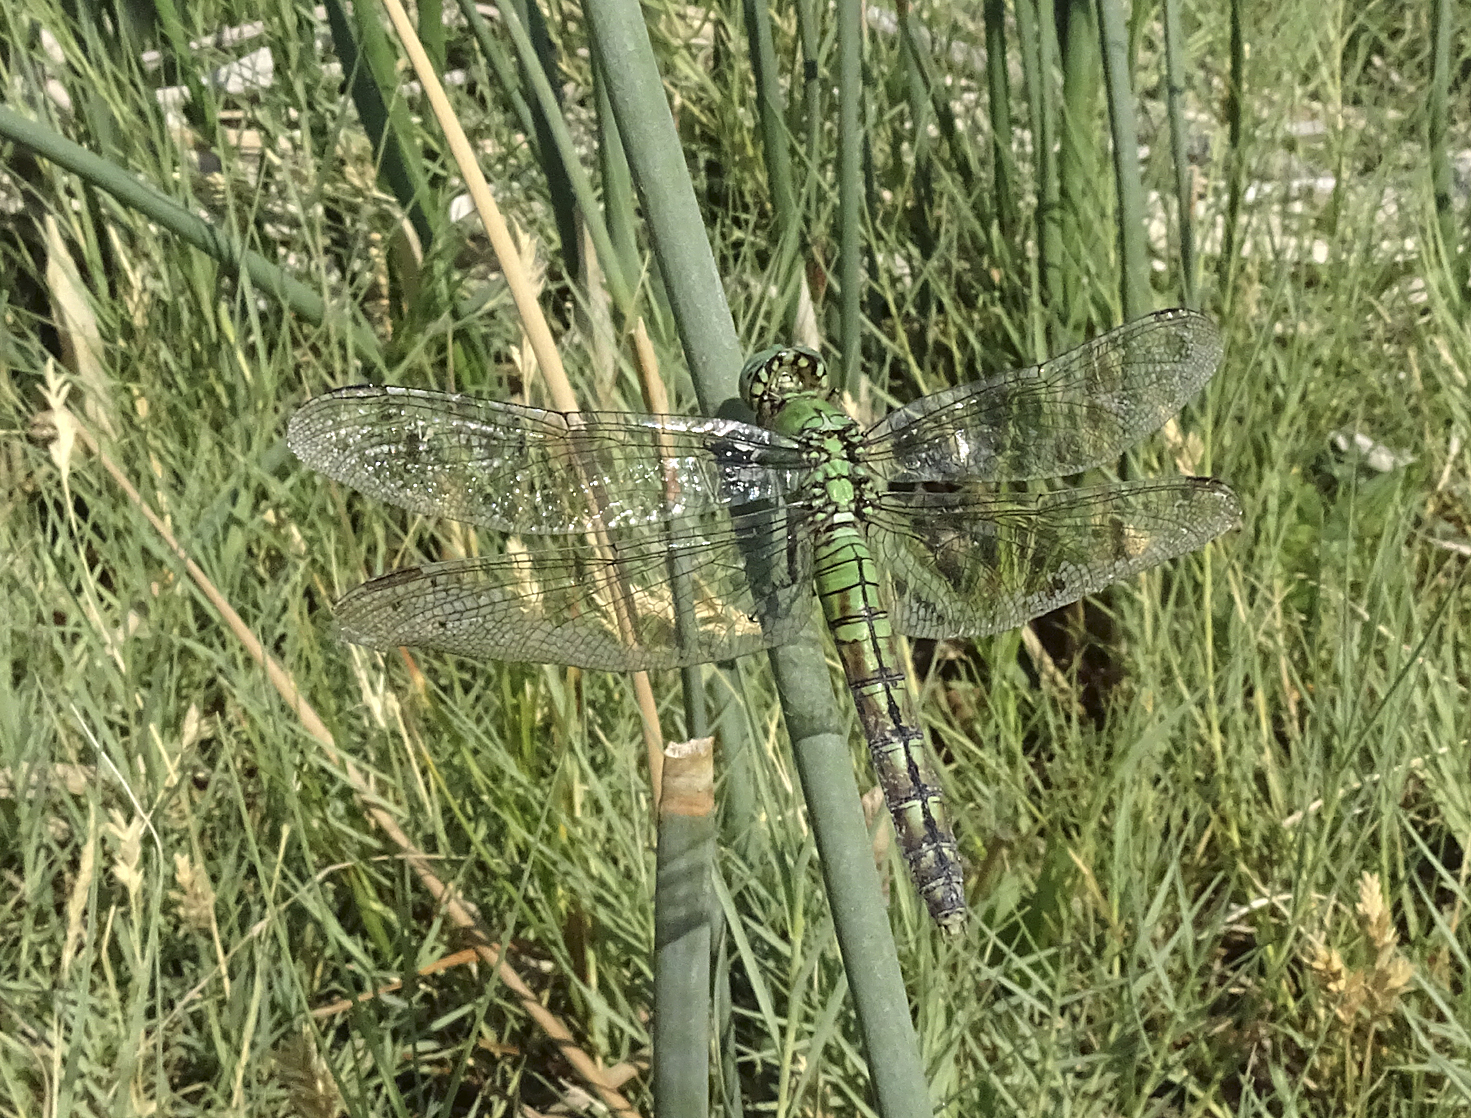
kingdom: Animalia
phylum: Arthropoda
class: Insecta
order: Odonata
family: Libellulidae
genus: Erythemis
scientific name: Erythemis collocata
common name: Western pondhawk
